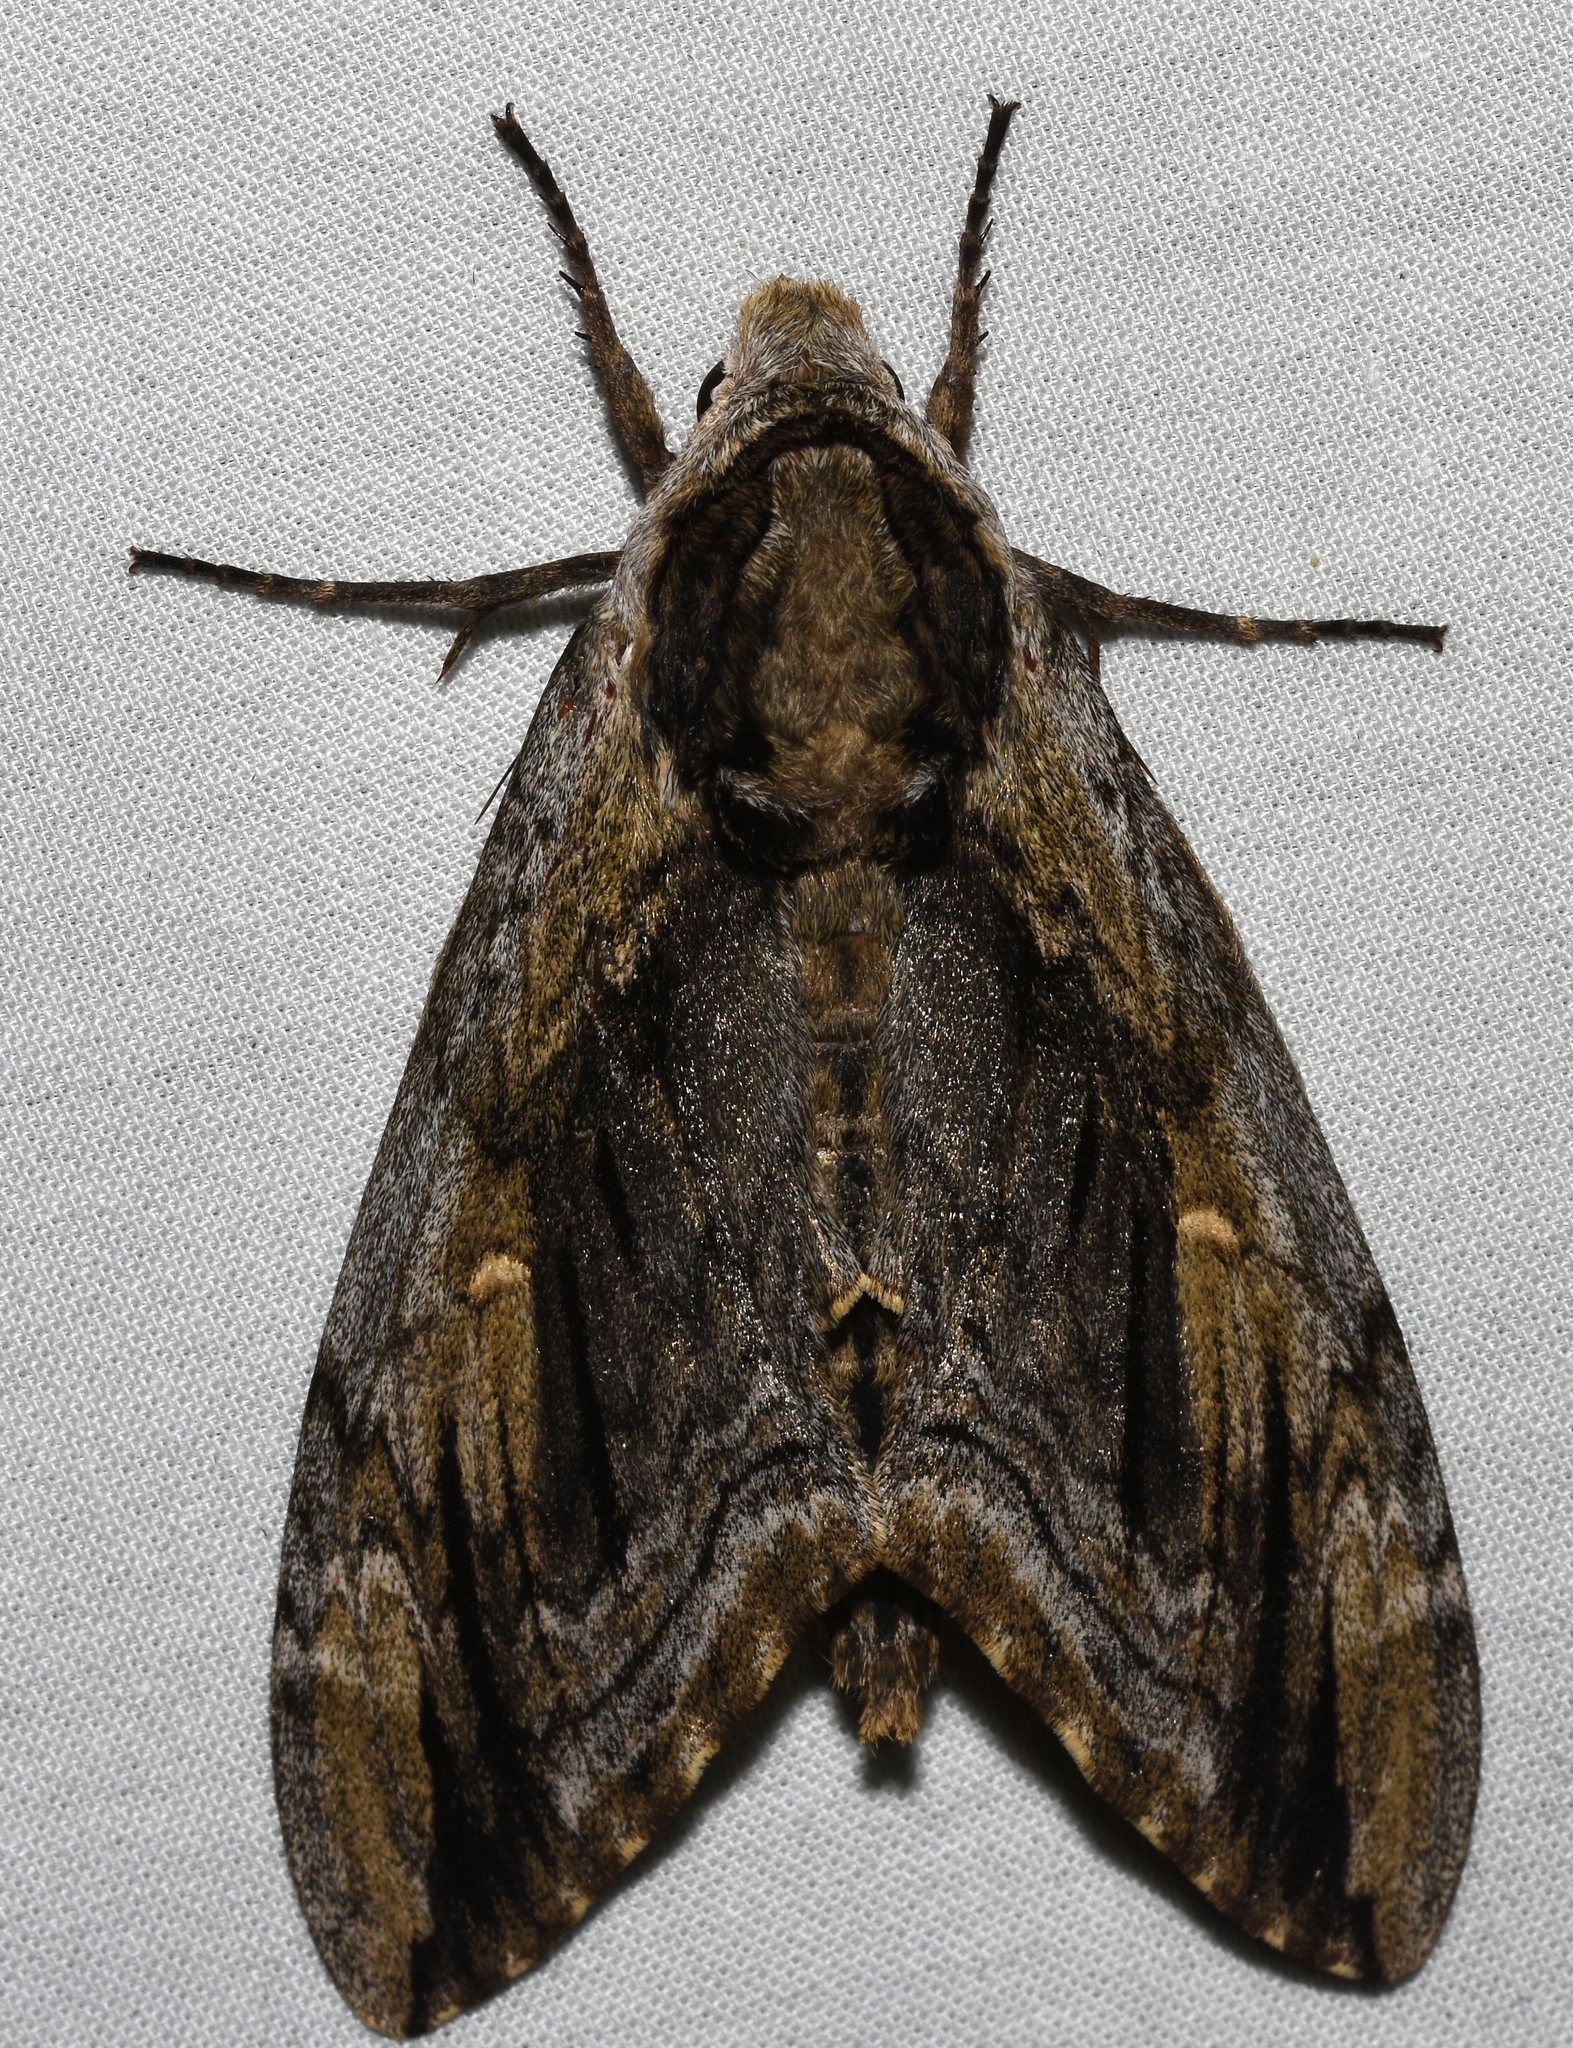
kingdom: Animalia
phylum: Arthropoda
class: Insecta
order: Lepidoptera
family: Sphingidae
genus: Ceratomia
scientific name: Ceratomia amyntor
